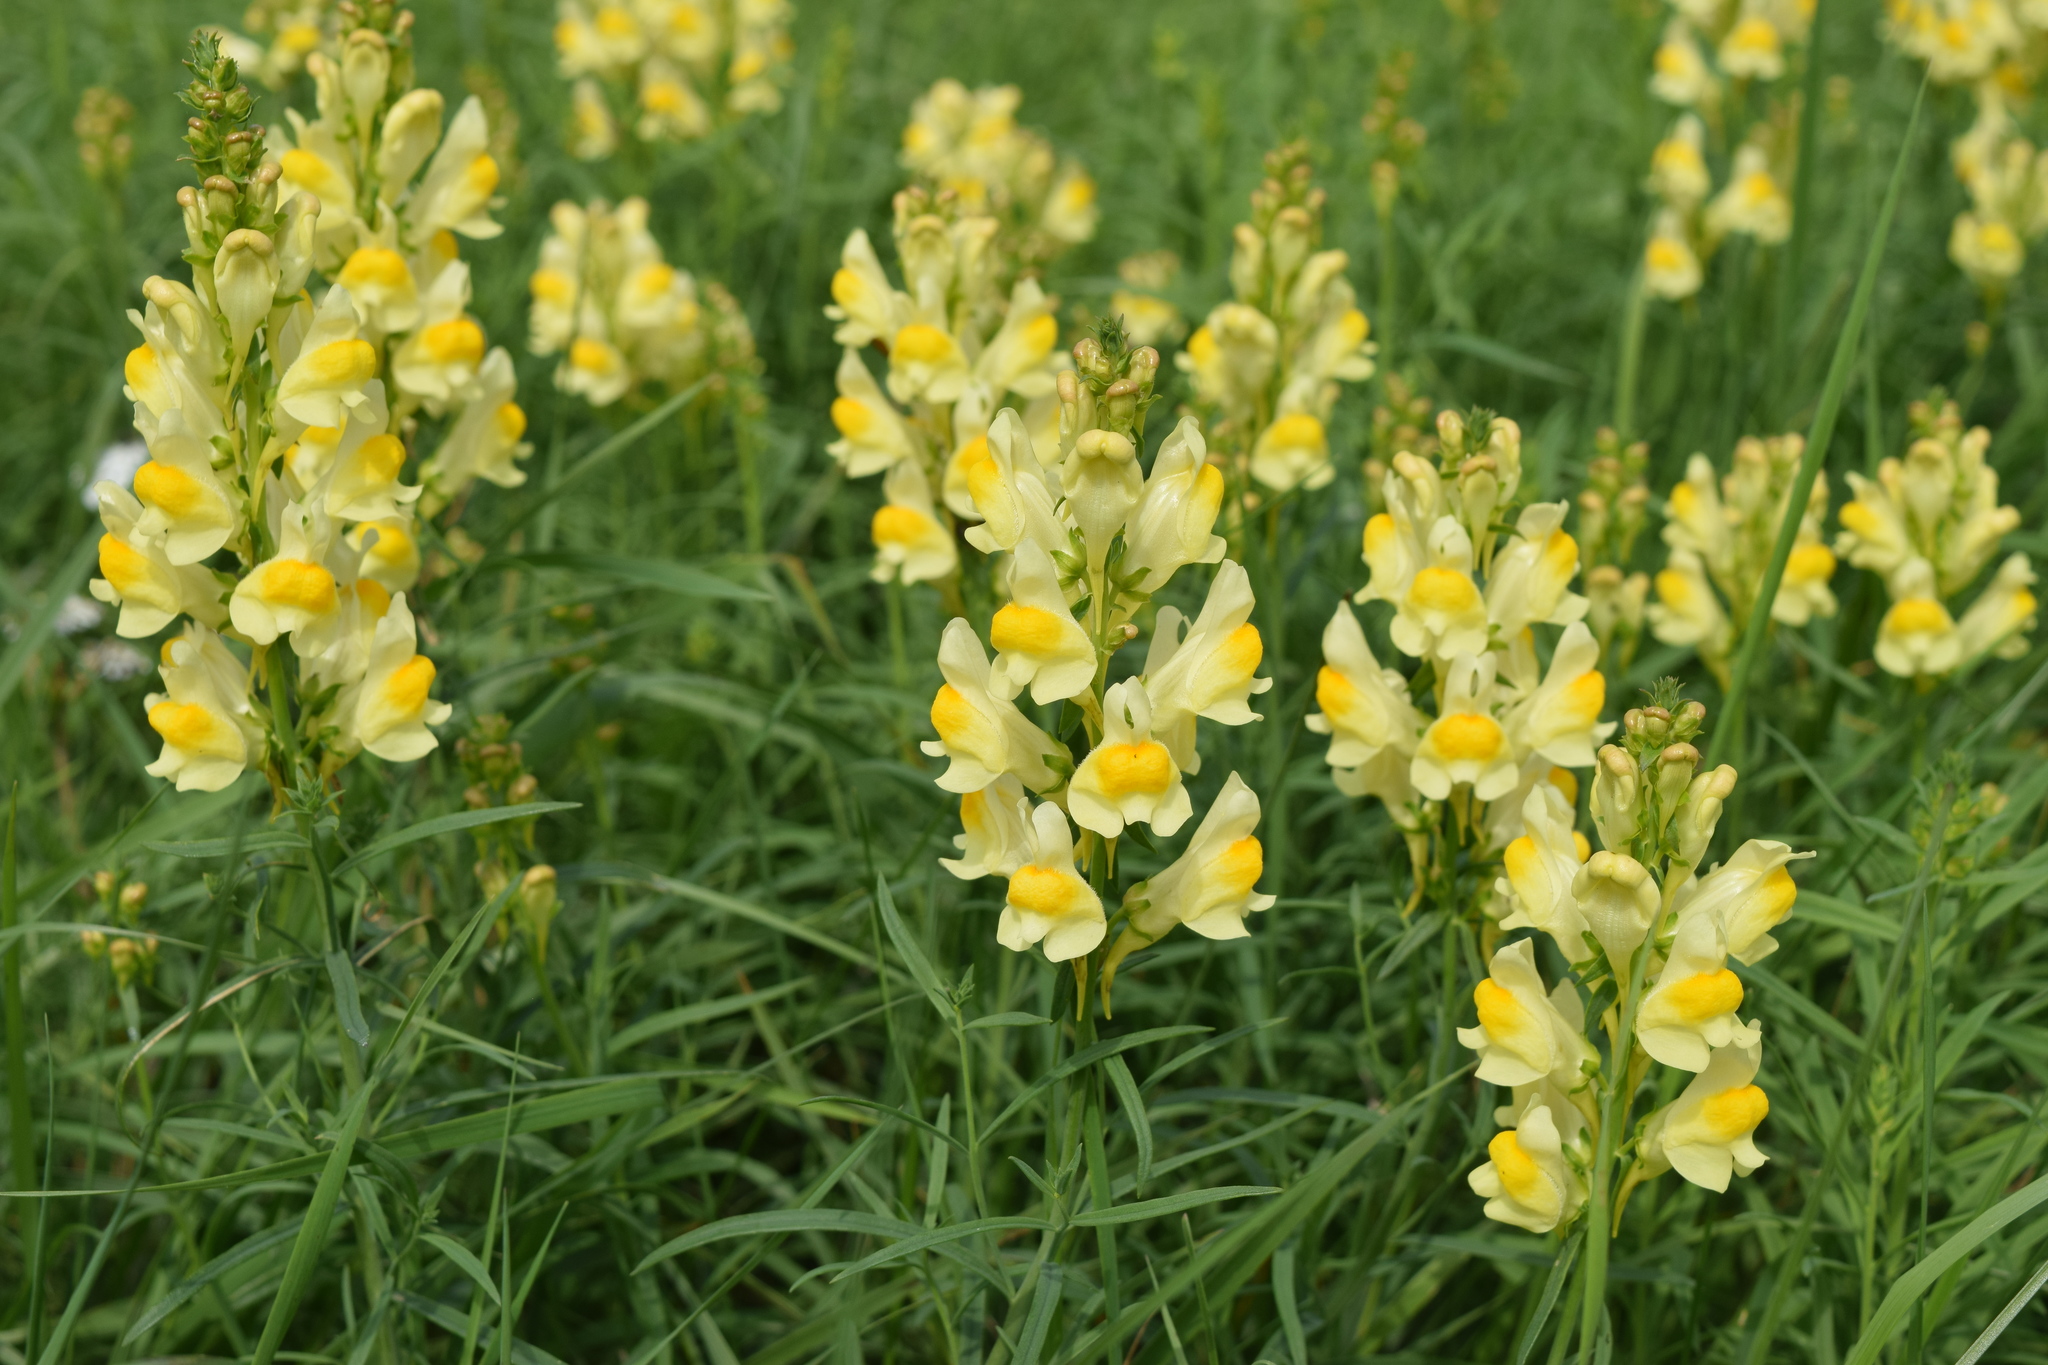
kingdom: Plantae
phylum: Tracheophyta
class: Magnoliopsida
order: Lamiales
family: Plantaginaceae
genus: Linaria
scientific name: Linaria vulgaris
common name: Butter and eggs
